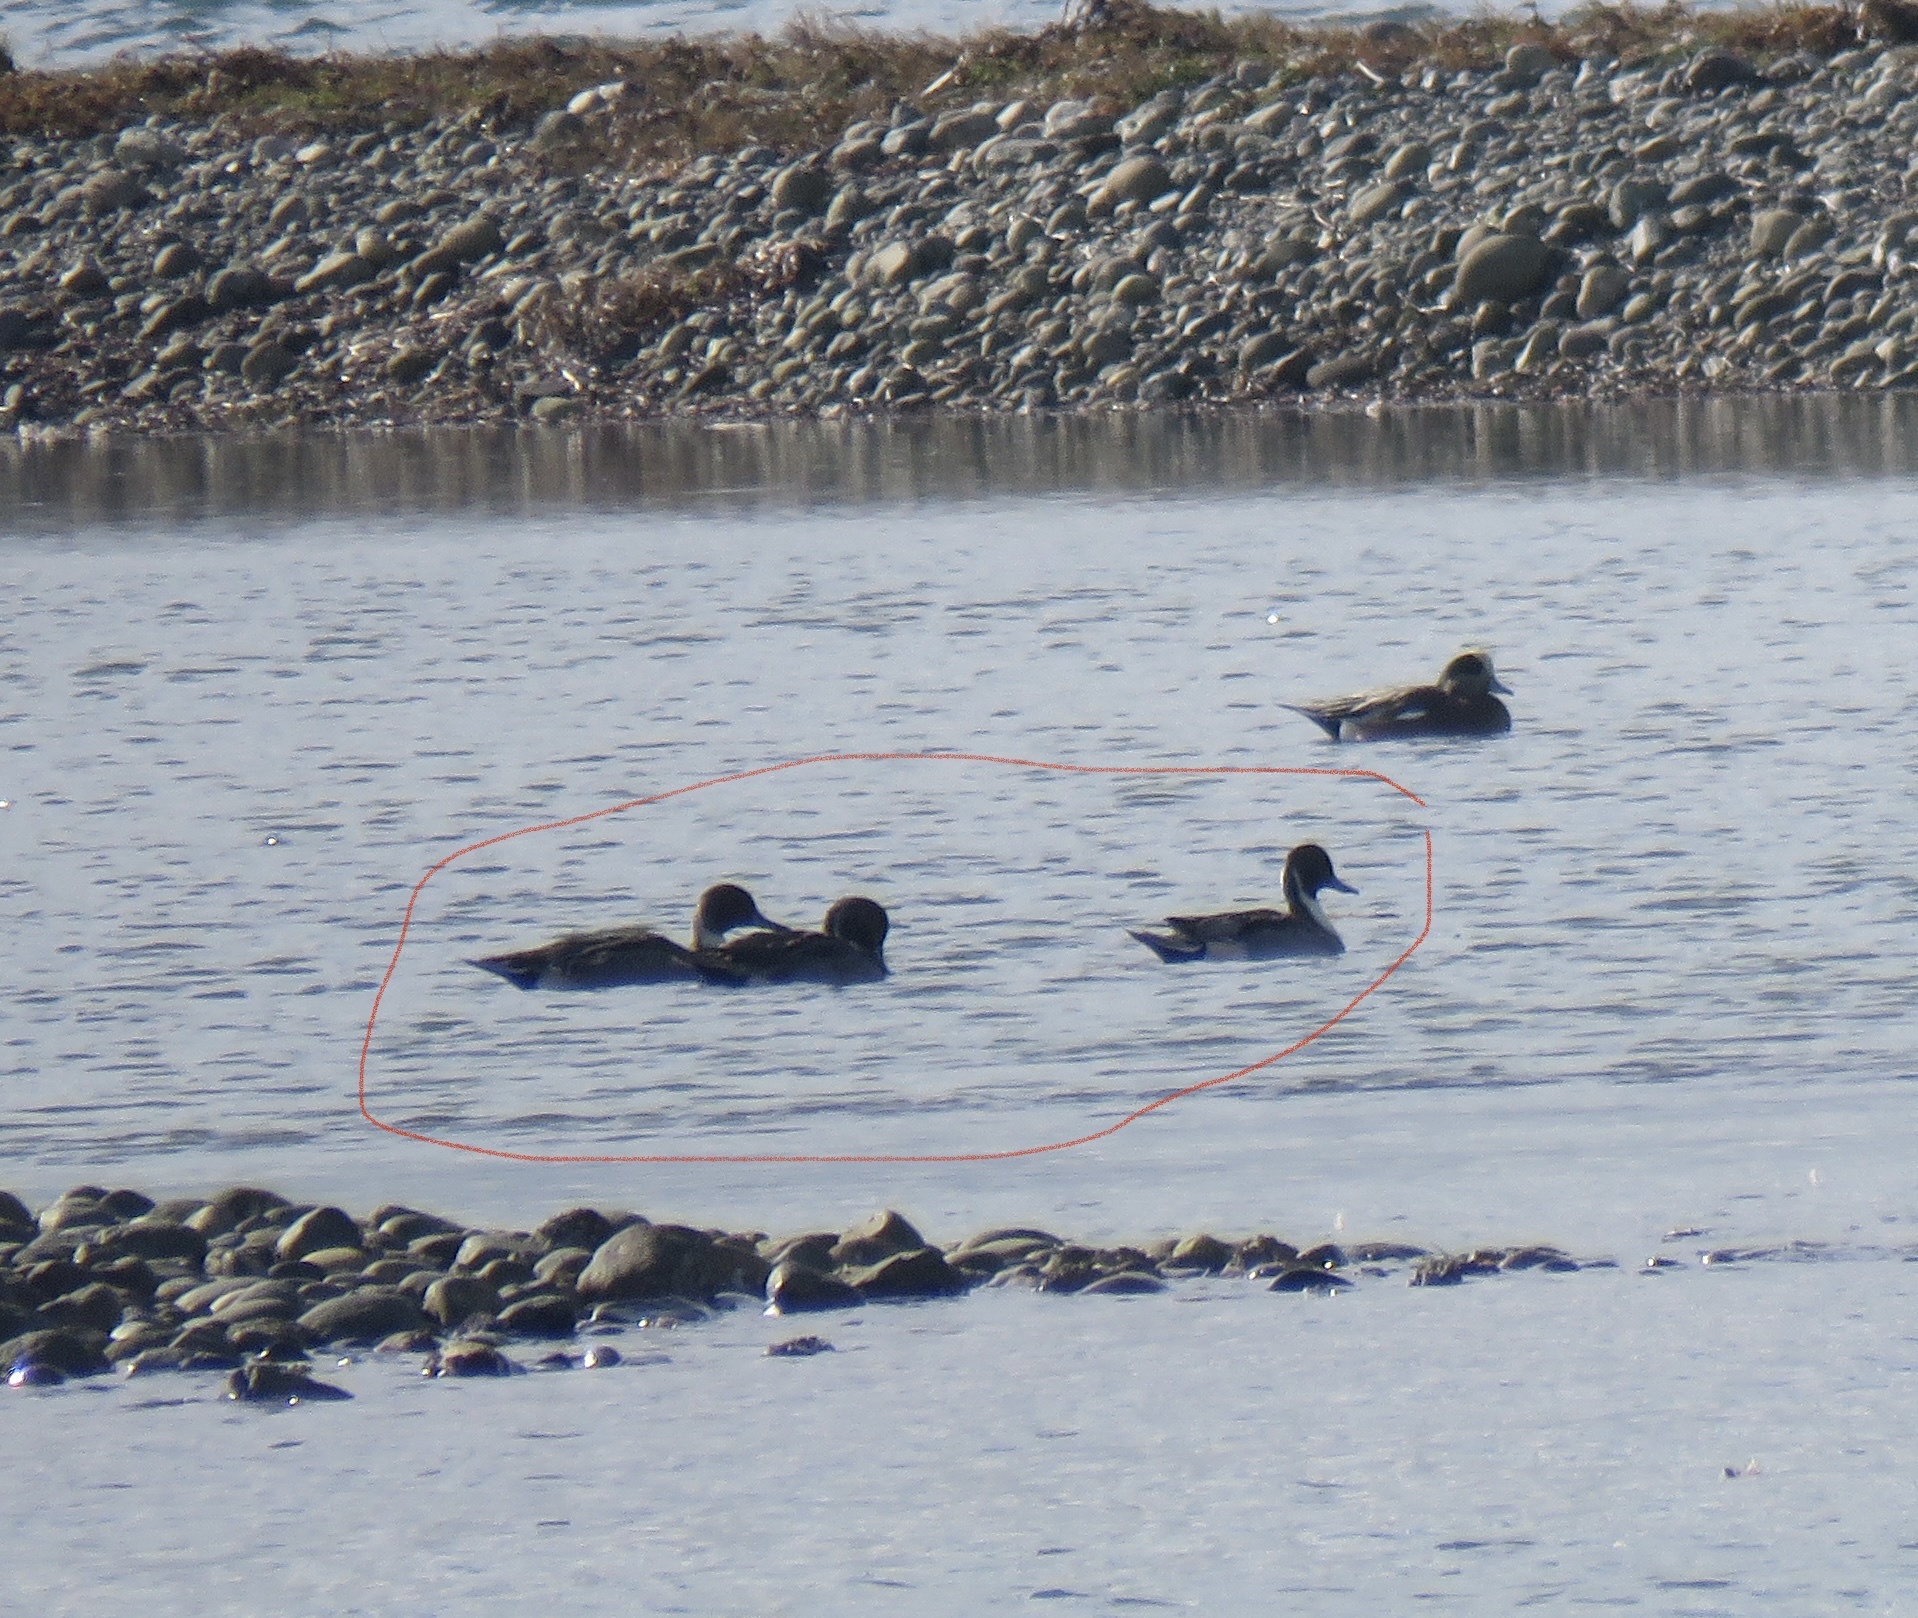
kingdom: Animalia
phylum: Chordata
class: Aves
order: Anseriformes
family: Anatidae
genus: Anas
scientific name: Anas acuta
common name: Northern pintail
